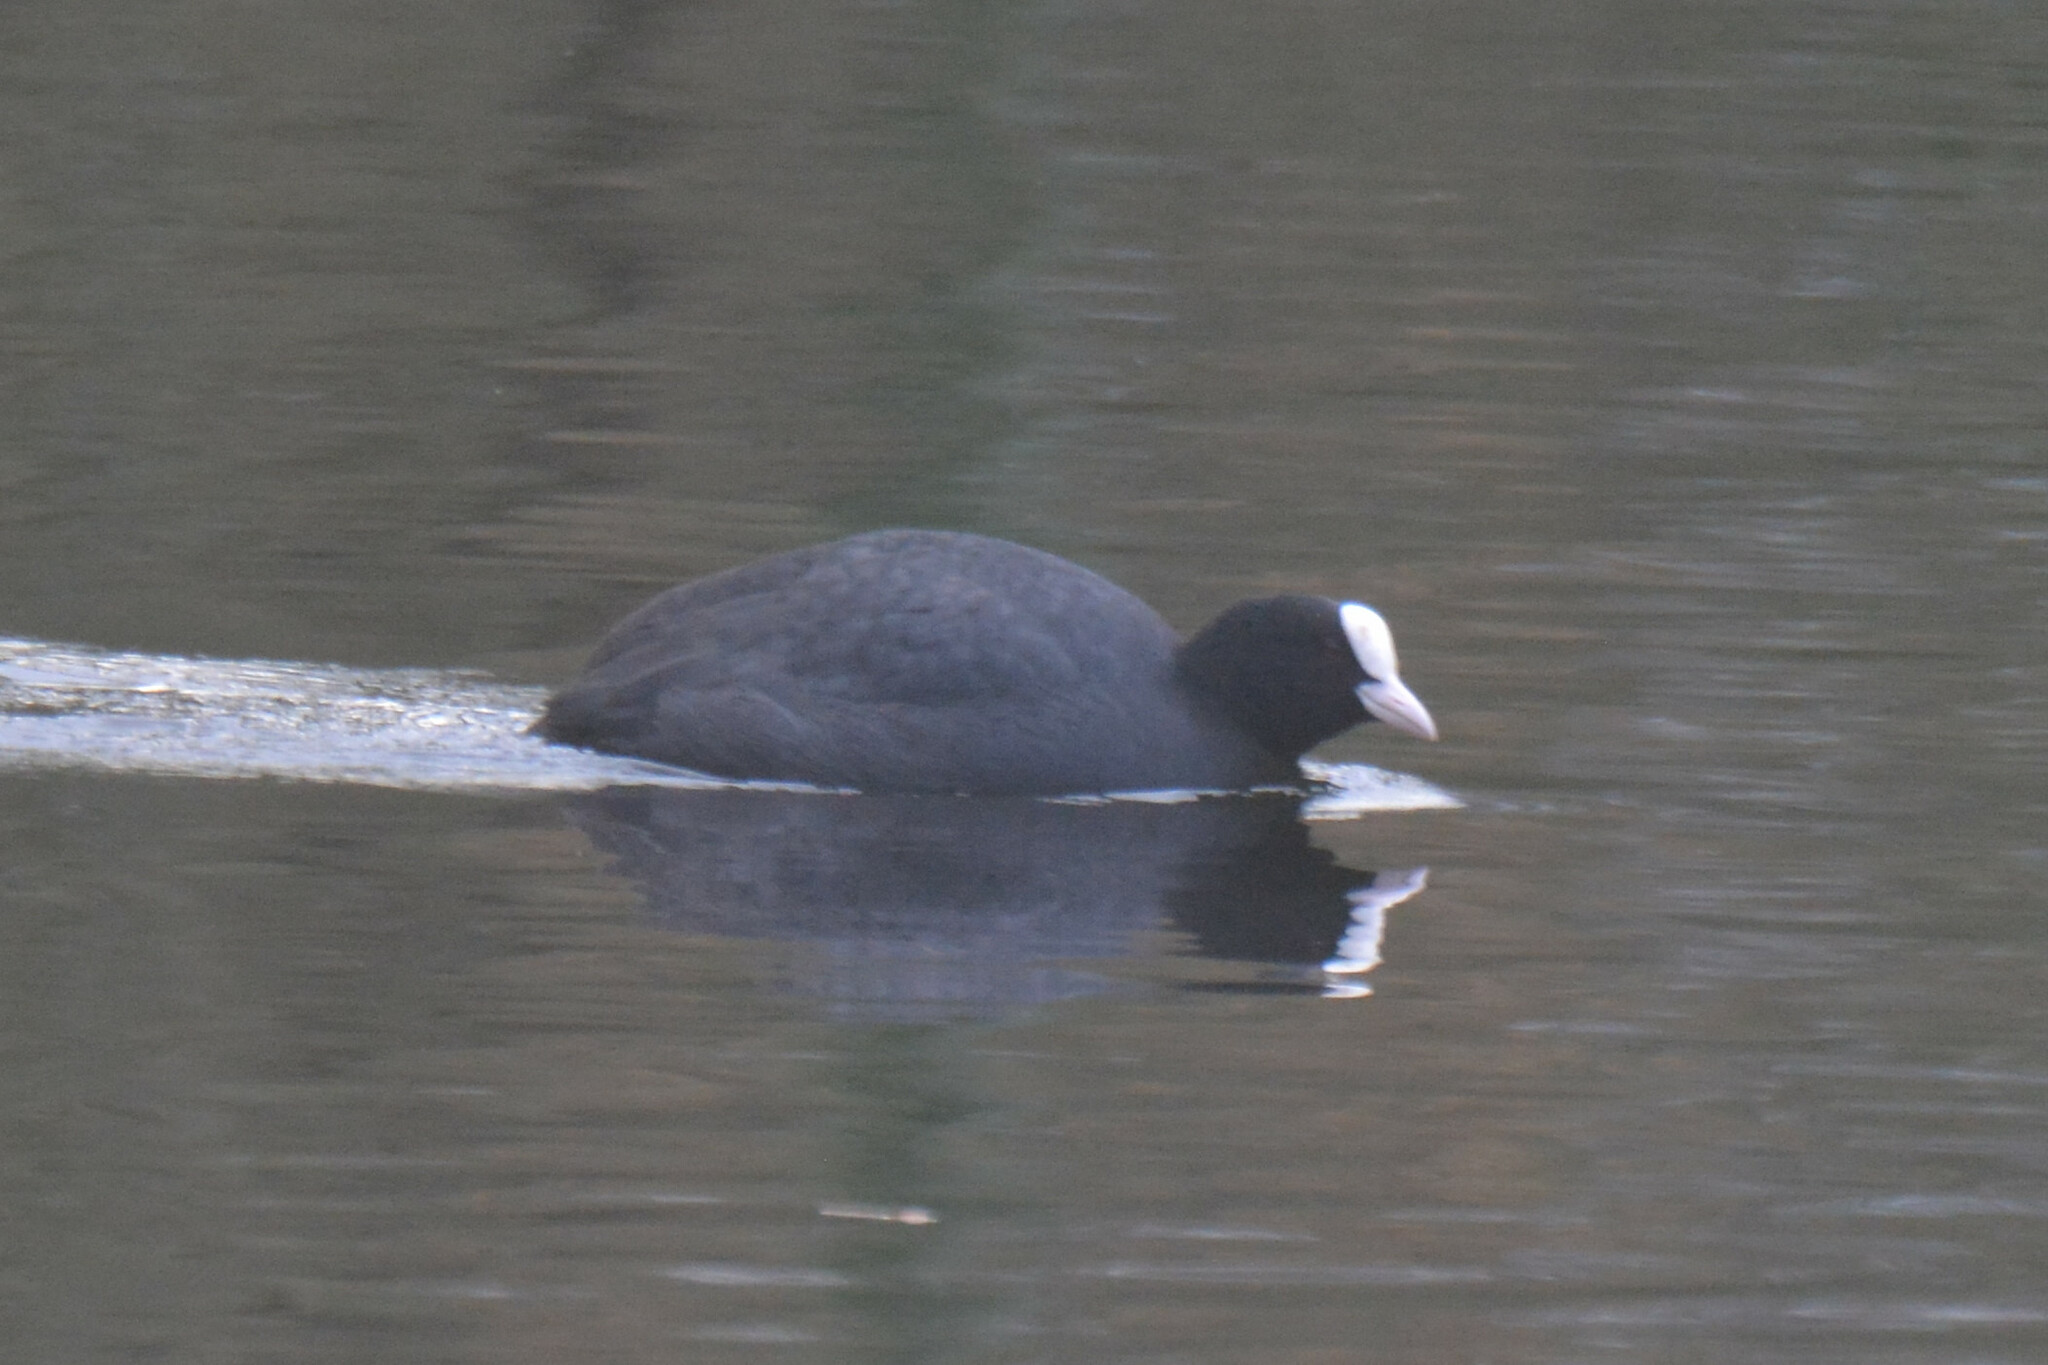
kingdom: Animalia
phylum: Chordata
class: Aves
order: Gruiformes
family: Rallidae
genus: Fulica
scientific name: Fulica atra
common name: Eurasian coot
